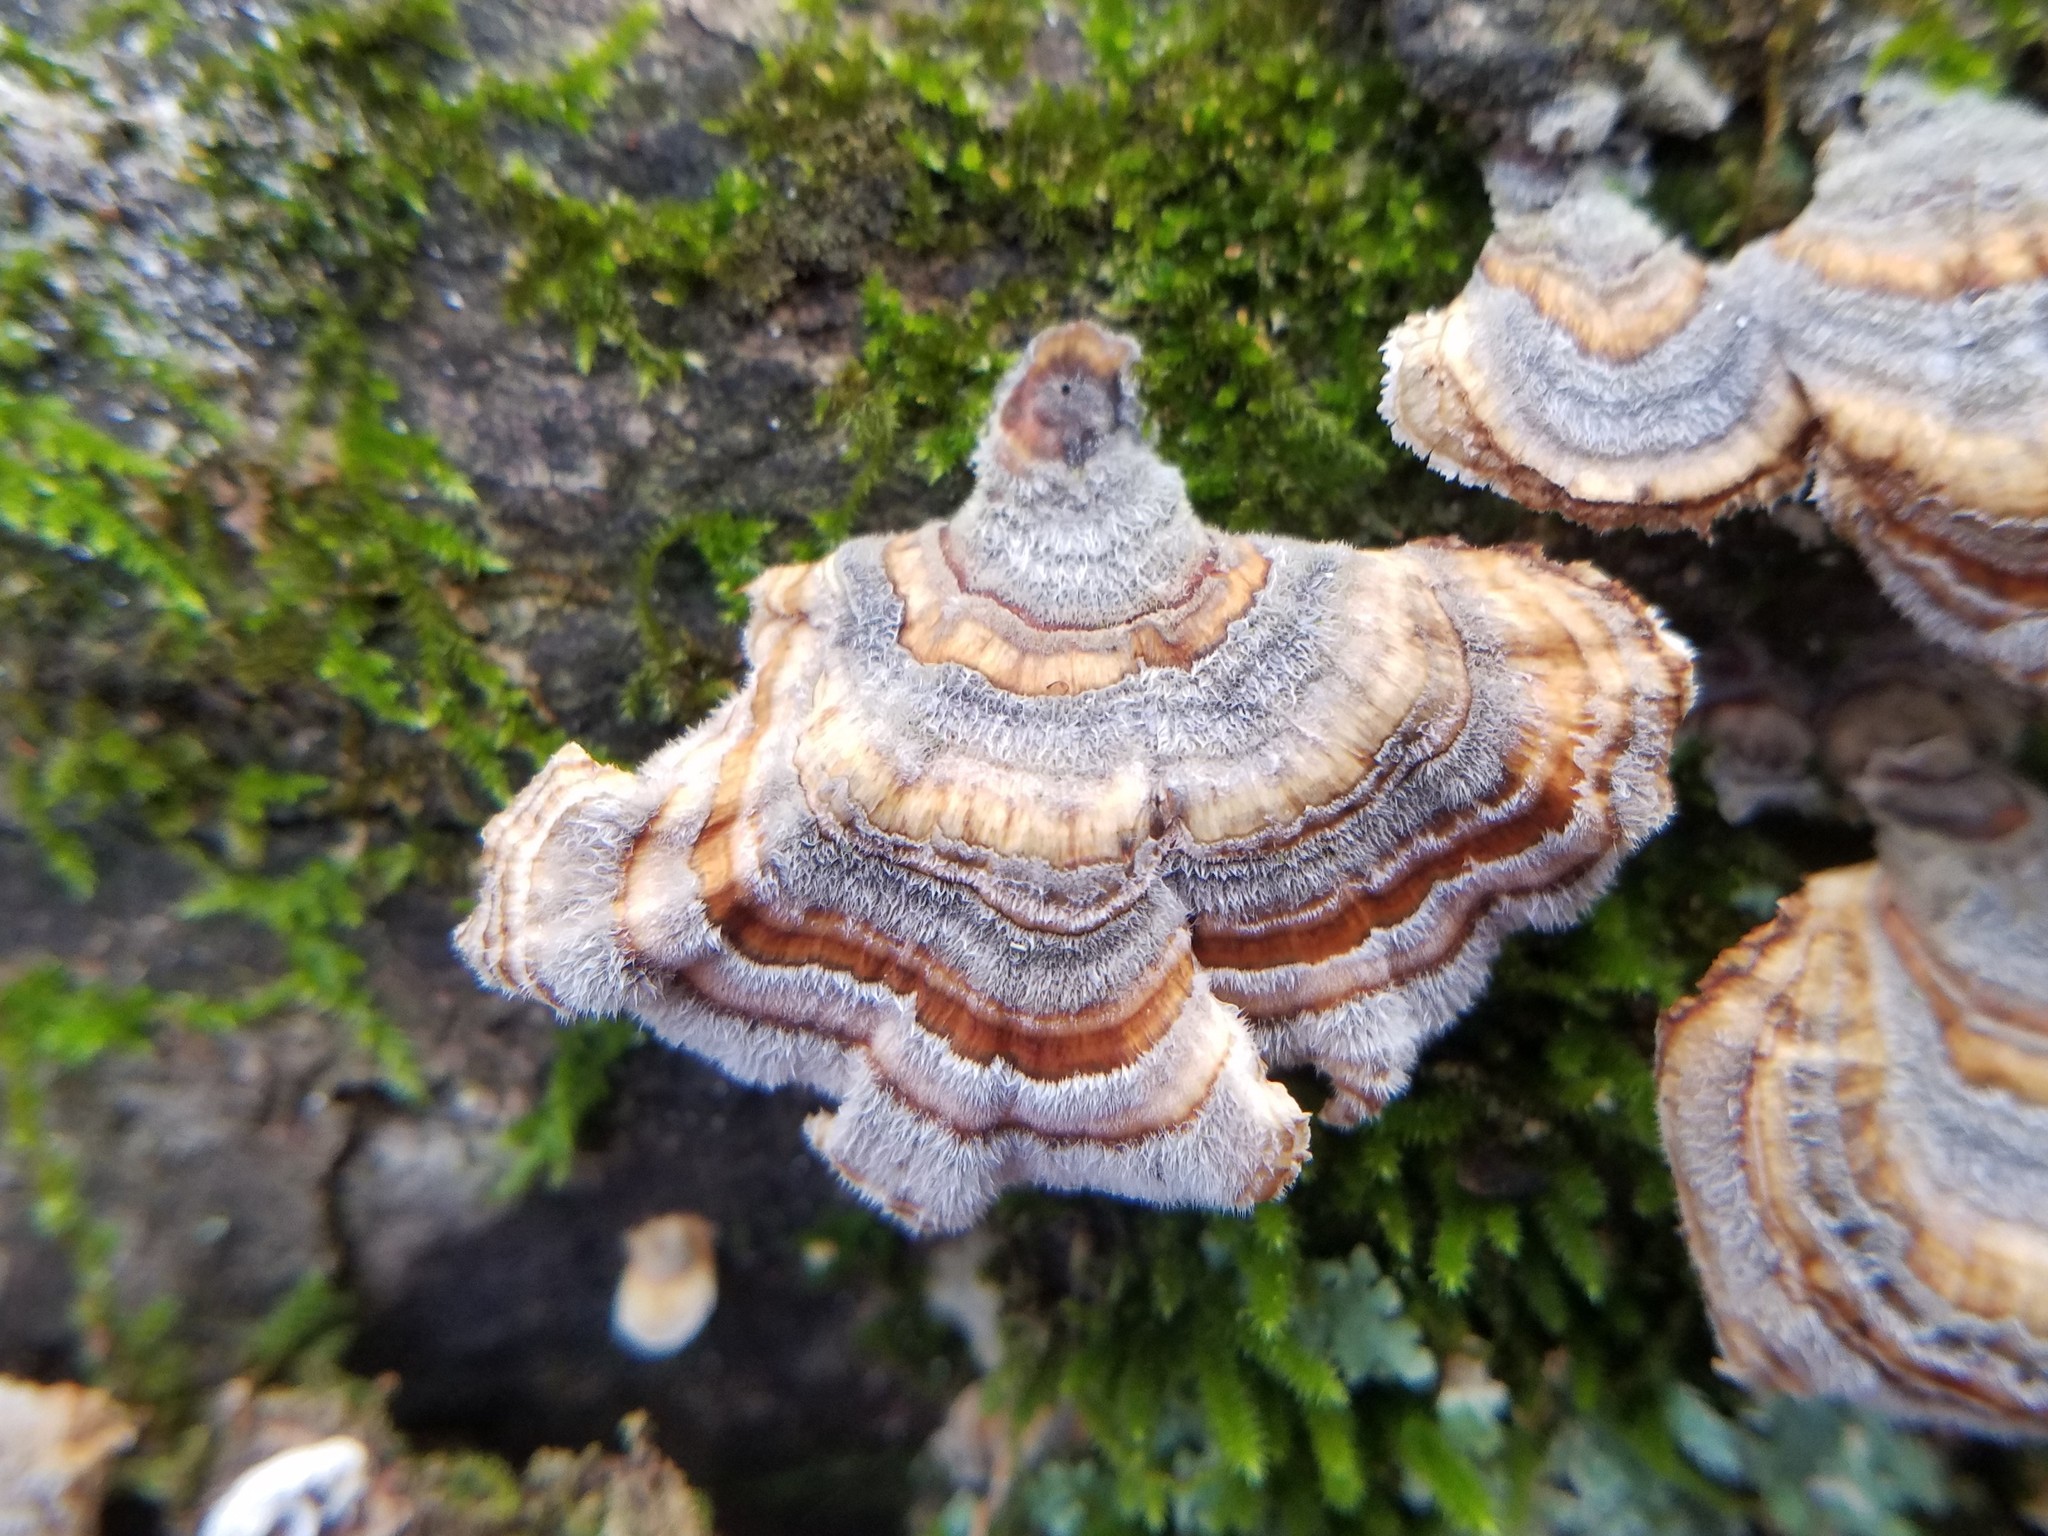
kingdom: Fungi
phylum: Basidiomycota
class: Agaricomycetes
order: Polyporales
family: Polyporaceae
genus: Trametes
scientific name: Trametes versicolor
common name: Turkeytail
